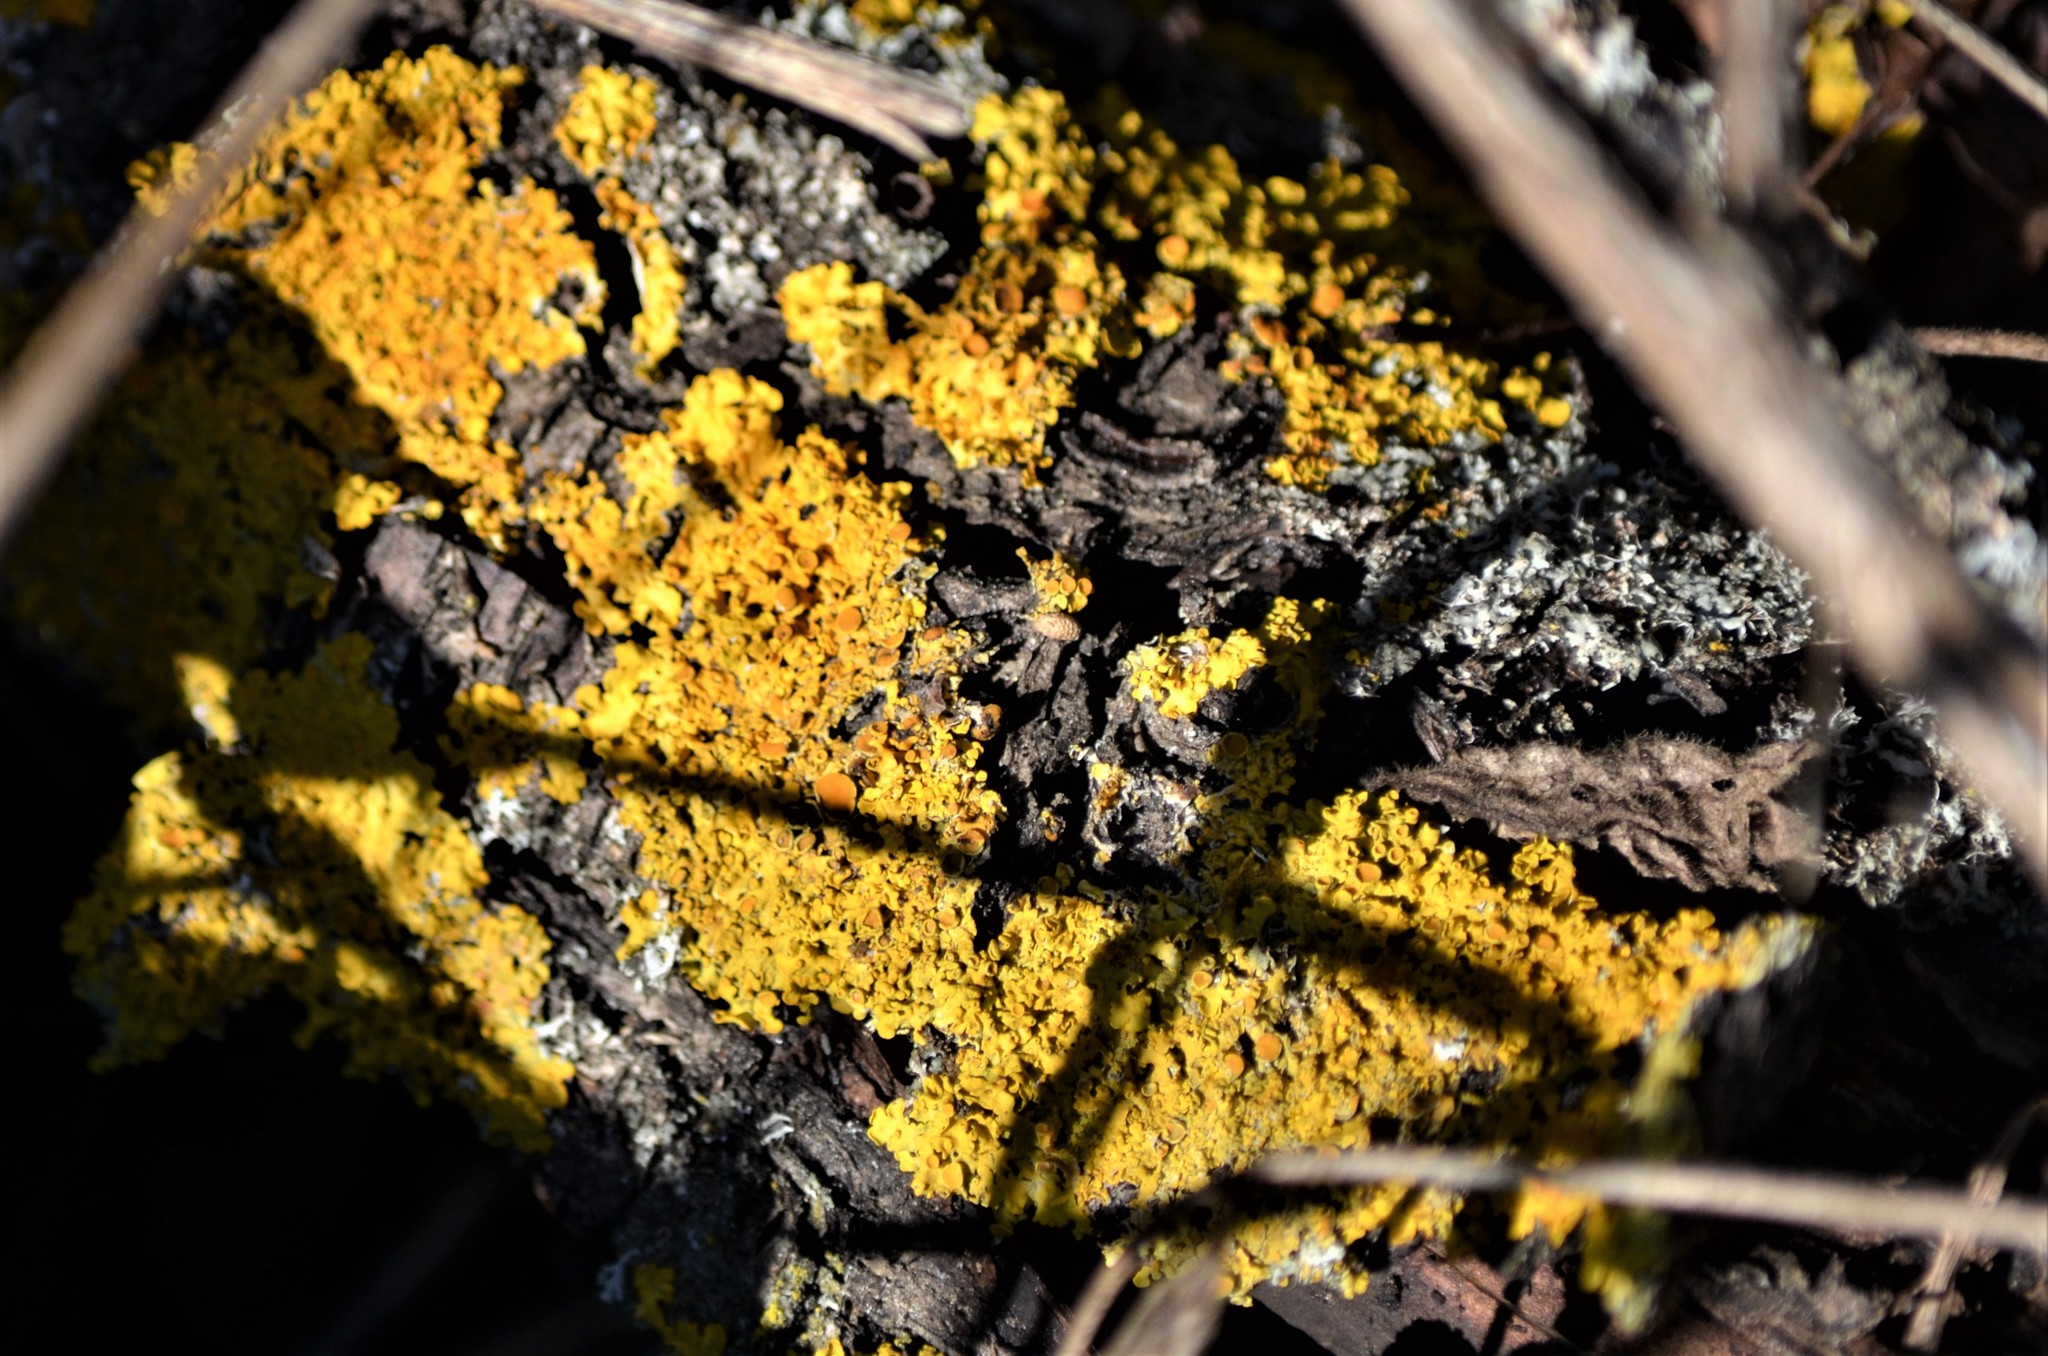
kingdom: Fungi
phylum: Ascomycota
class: Lecanoromycetes
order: Teloschistales
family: Teloschistaceae
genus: Xanthoria
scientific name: Xanthoria parietina
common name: Common orange lichen
